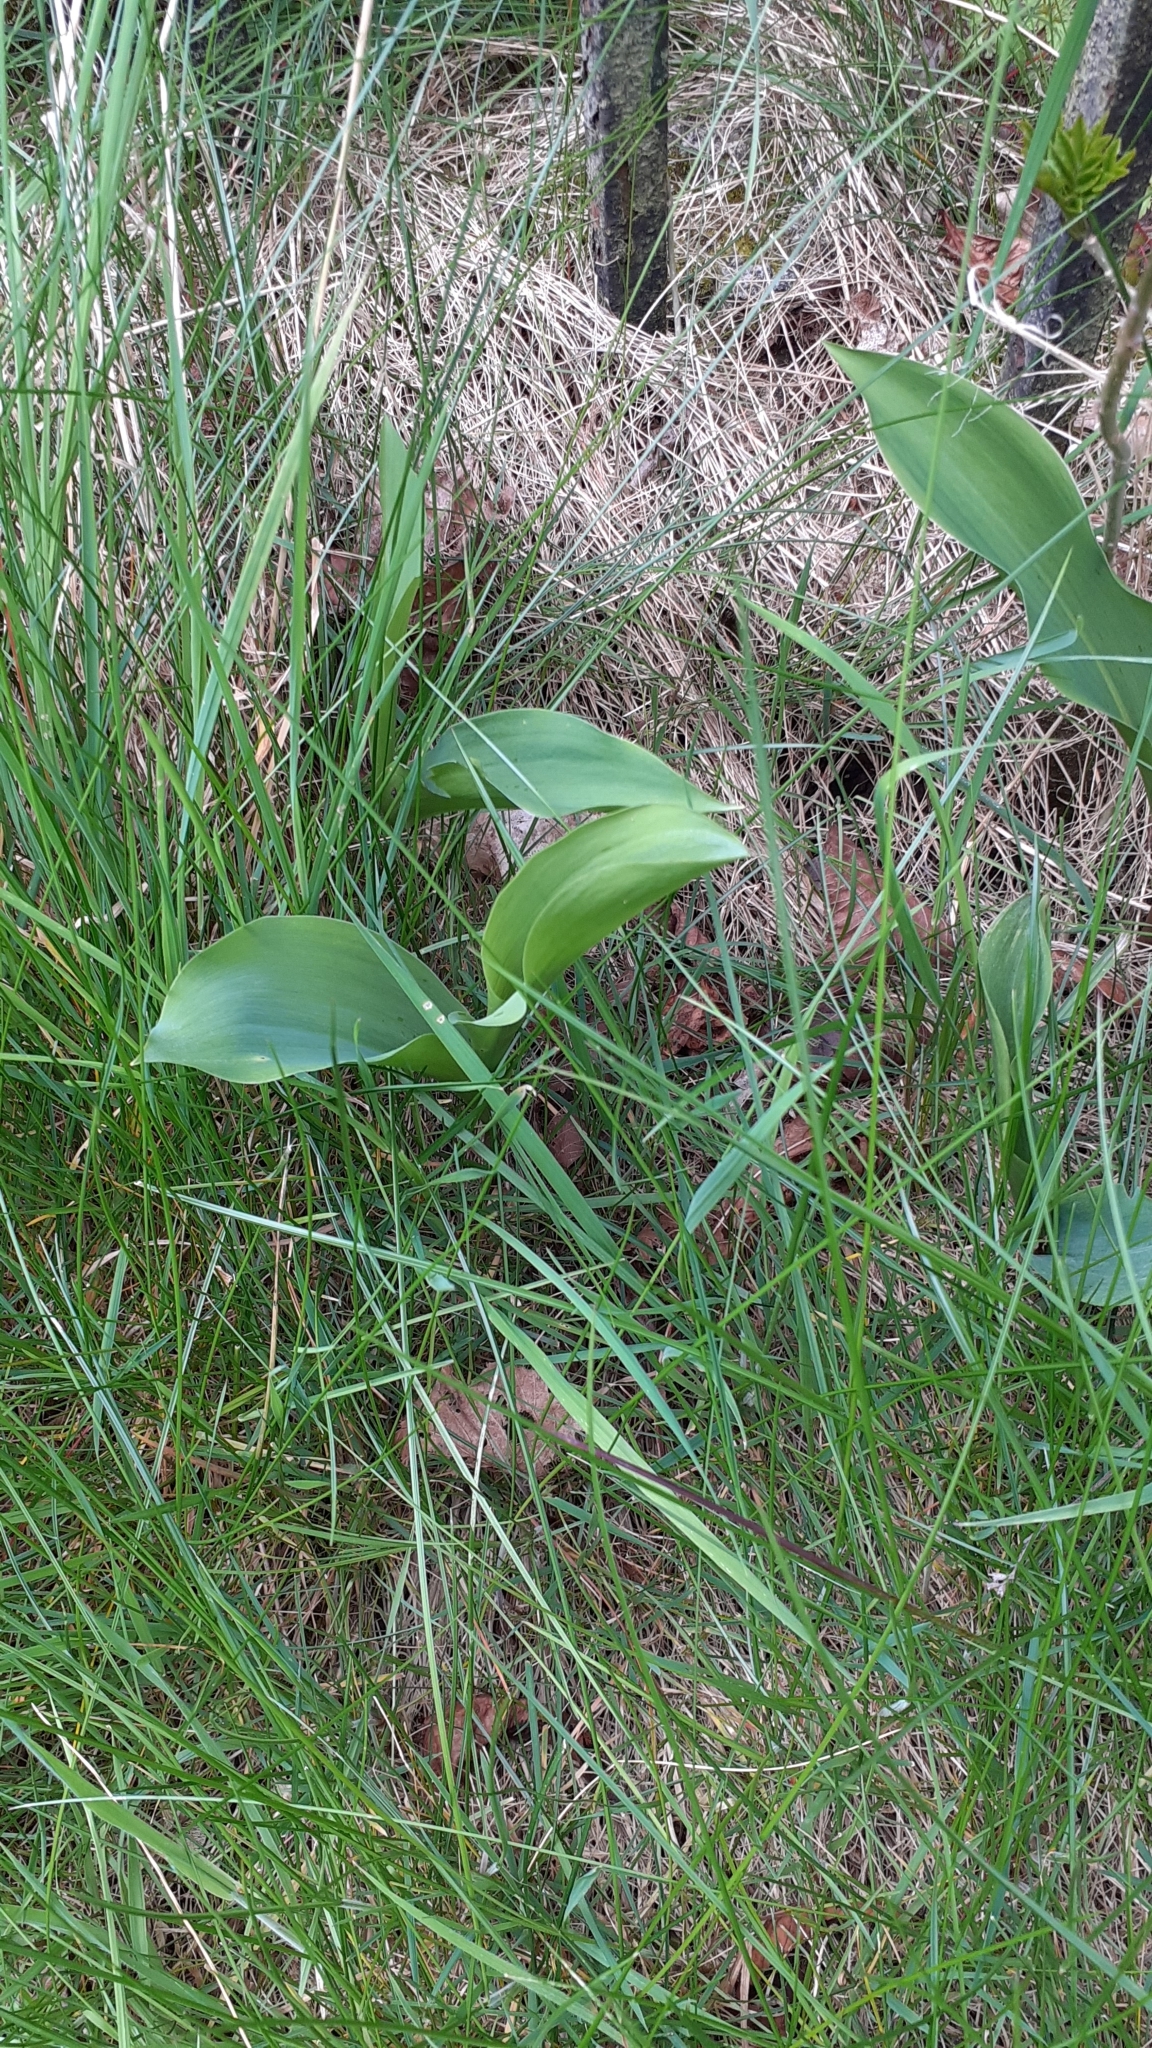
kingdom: Plantae
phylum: Tracheophyta
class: Liliopsida
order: Asparagales
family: Asparagaceae
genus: Convallaria
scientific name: Convallaria majalis
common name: Lily-of-the-valley
